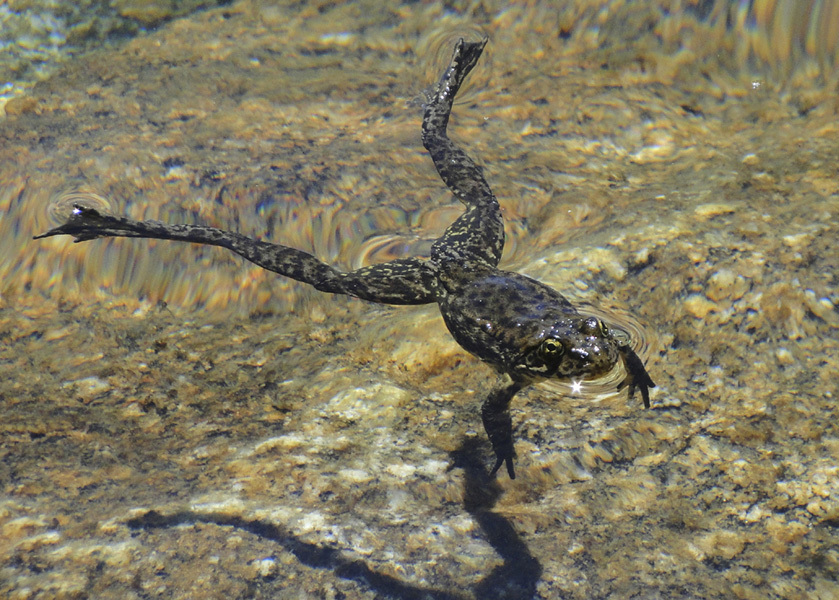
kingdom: Animalia
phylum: Chordata
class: Amphibia
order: Anura
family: Ranidae
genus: Rana
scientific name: Rana sierrae
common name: Sierra nevada yellow-legged frog
